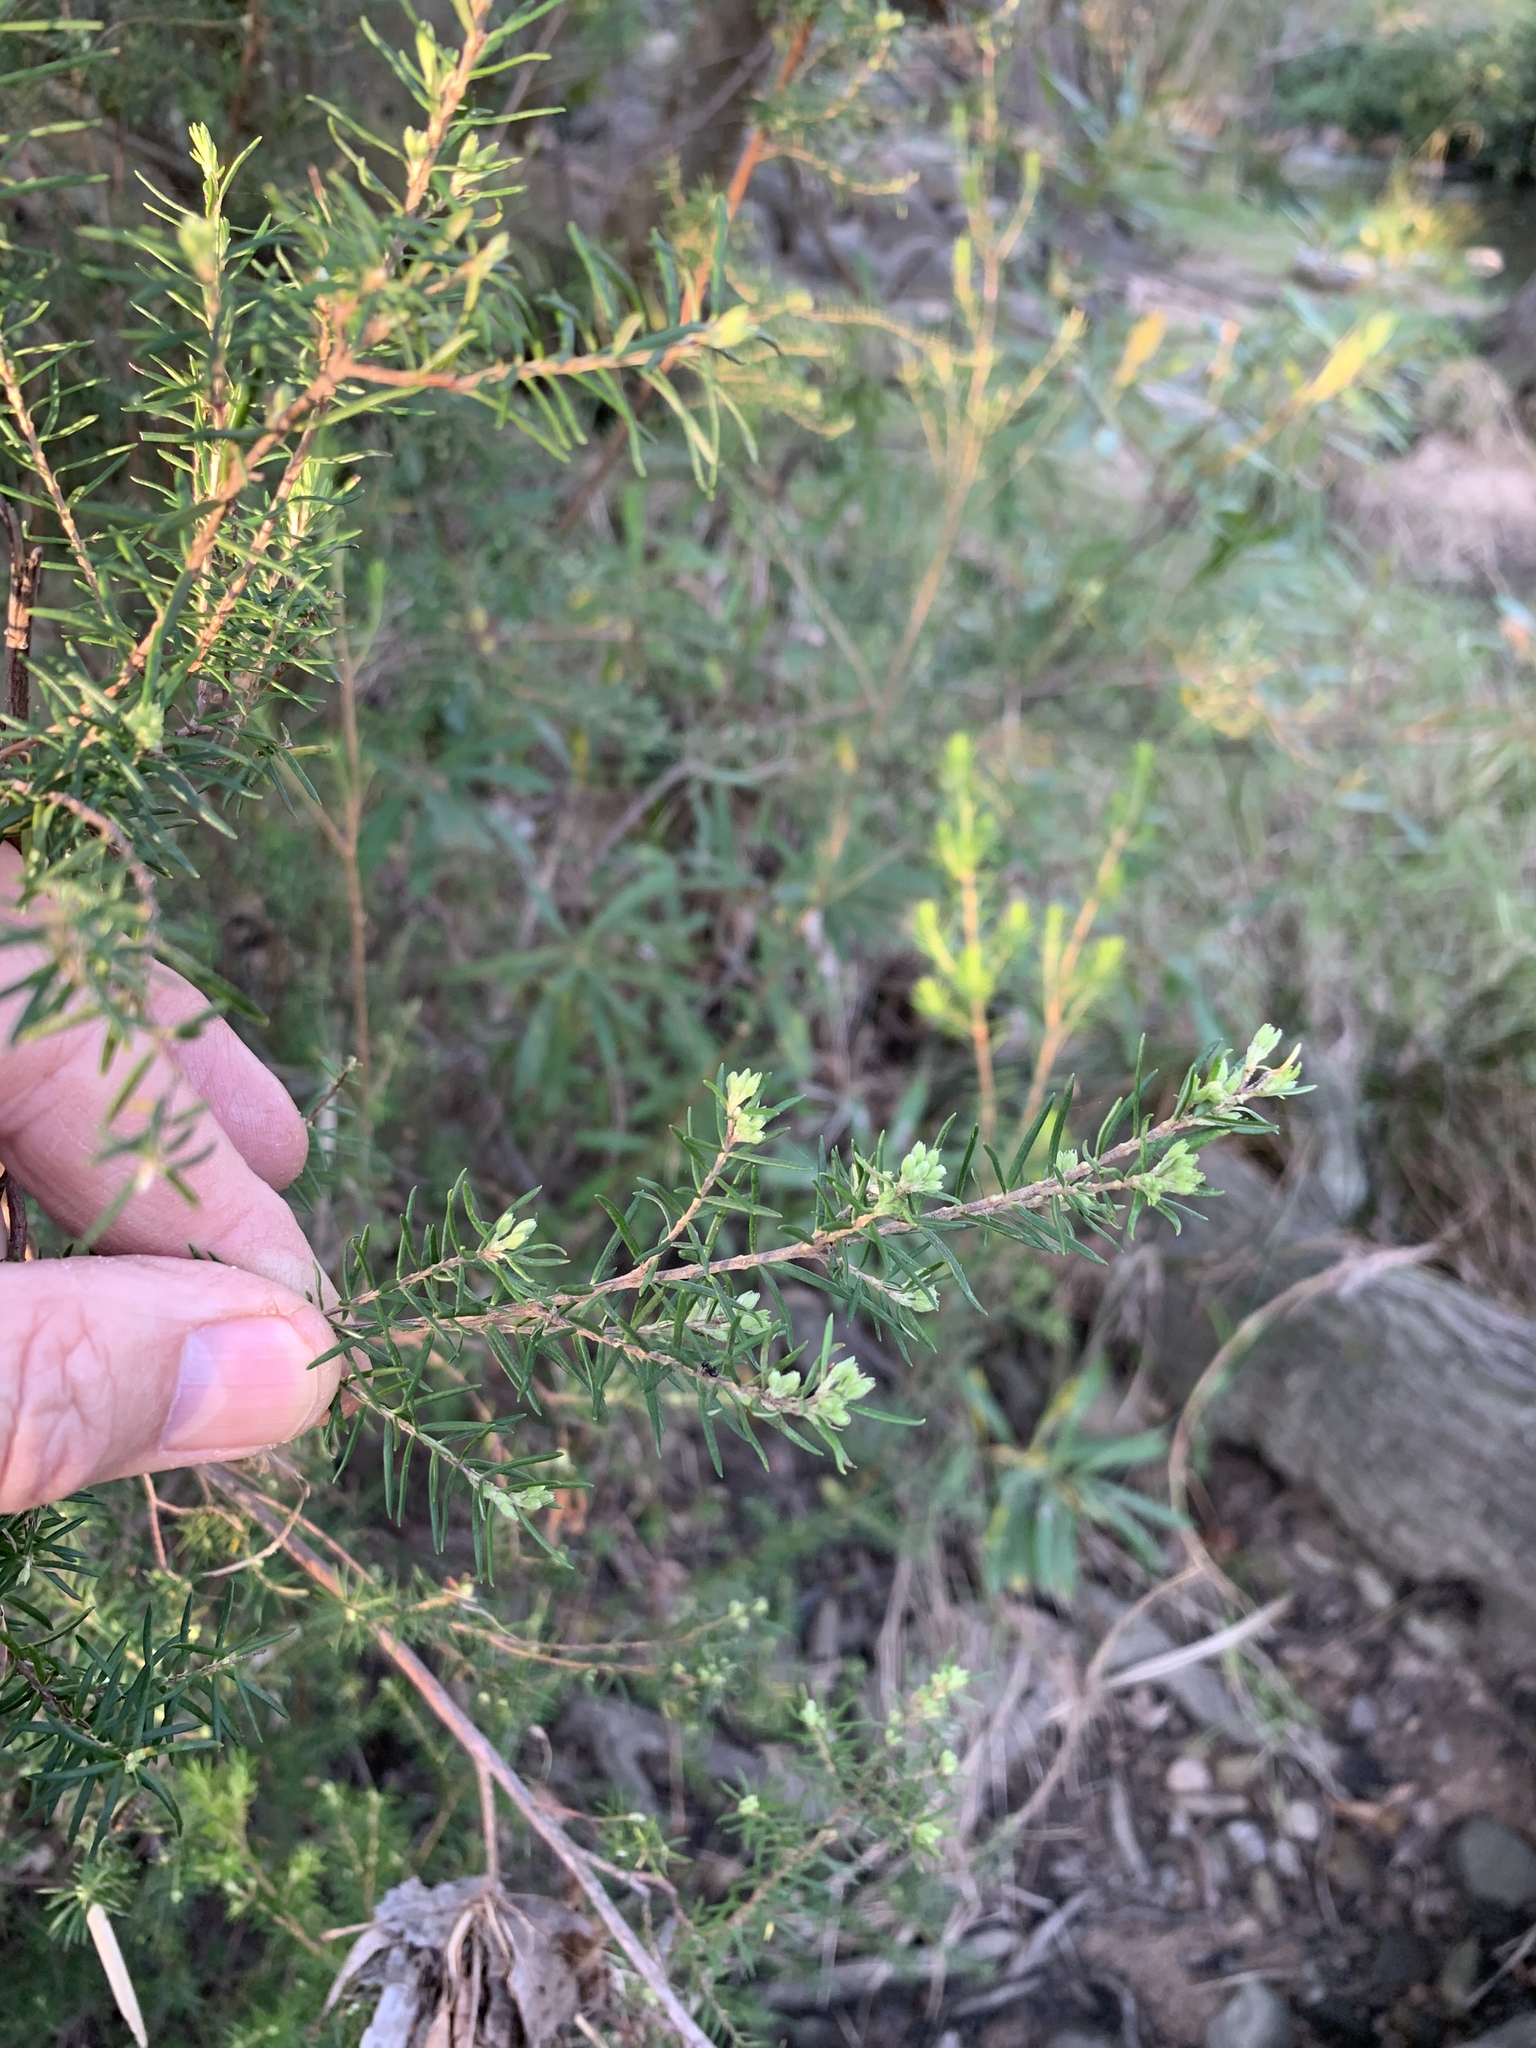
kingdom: Plantae
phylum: Tracheophyta
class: Magnoliopsida
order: Ericales
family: Ericaceae
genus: Erica
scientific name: Erica caffra
